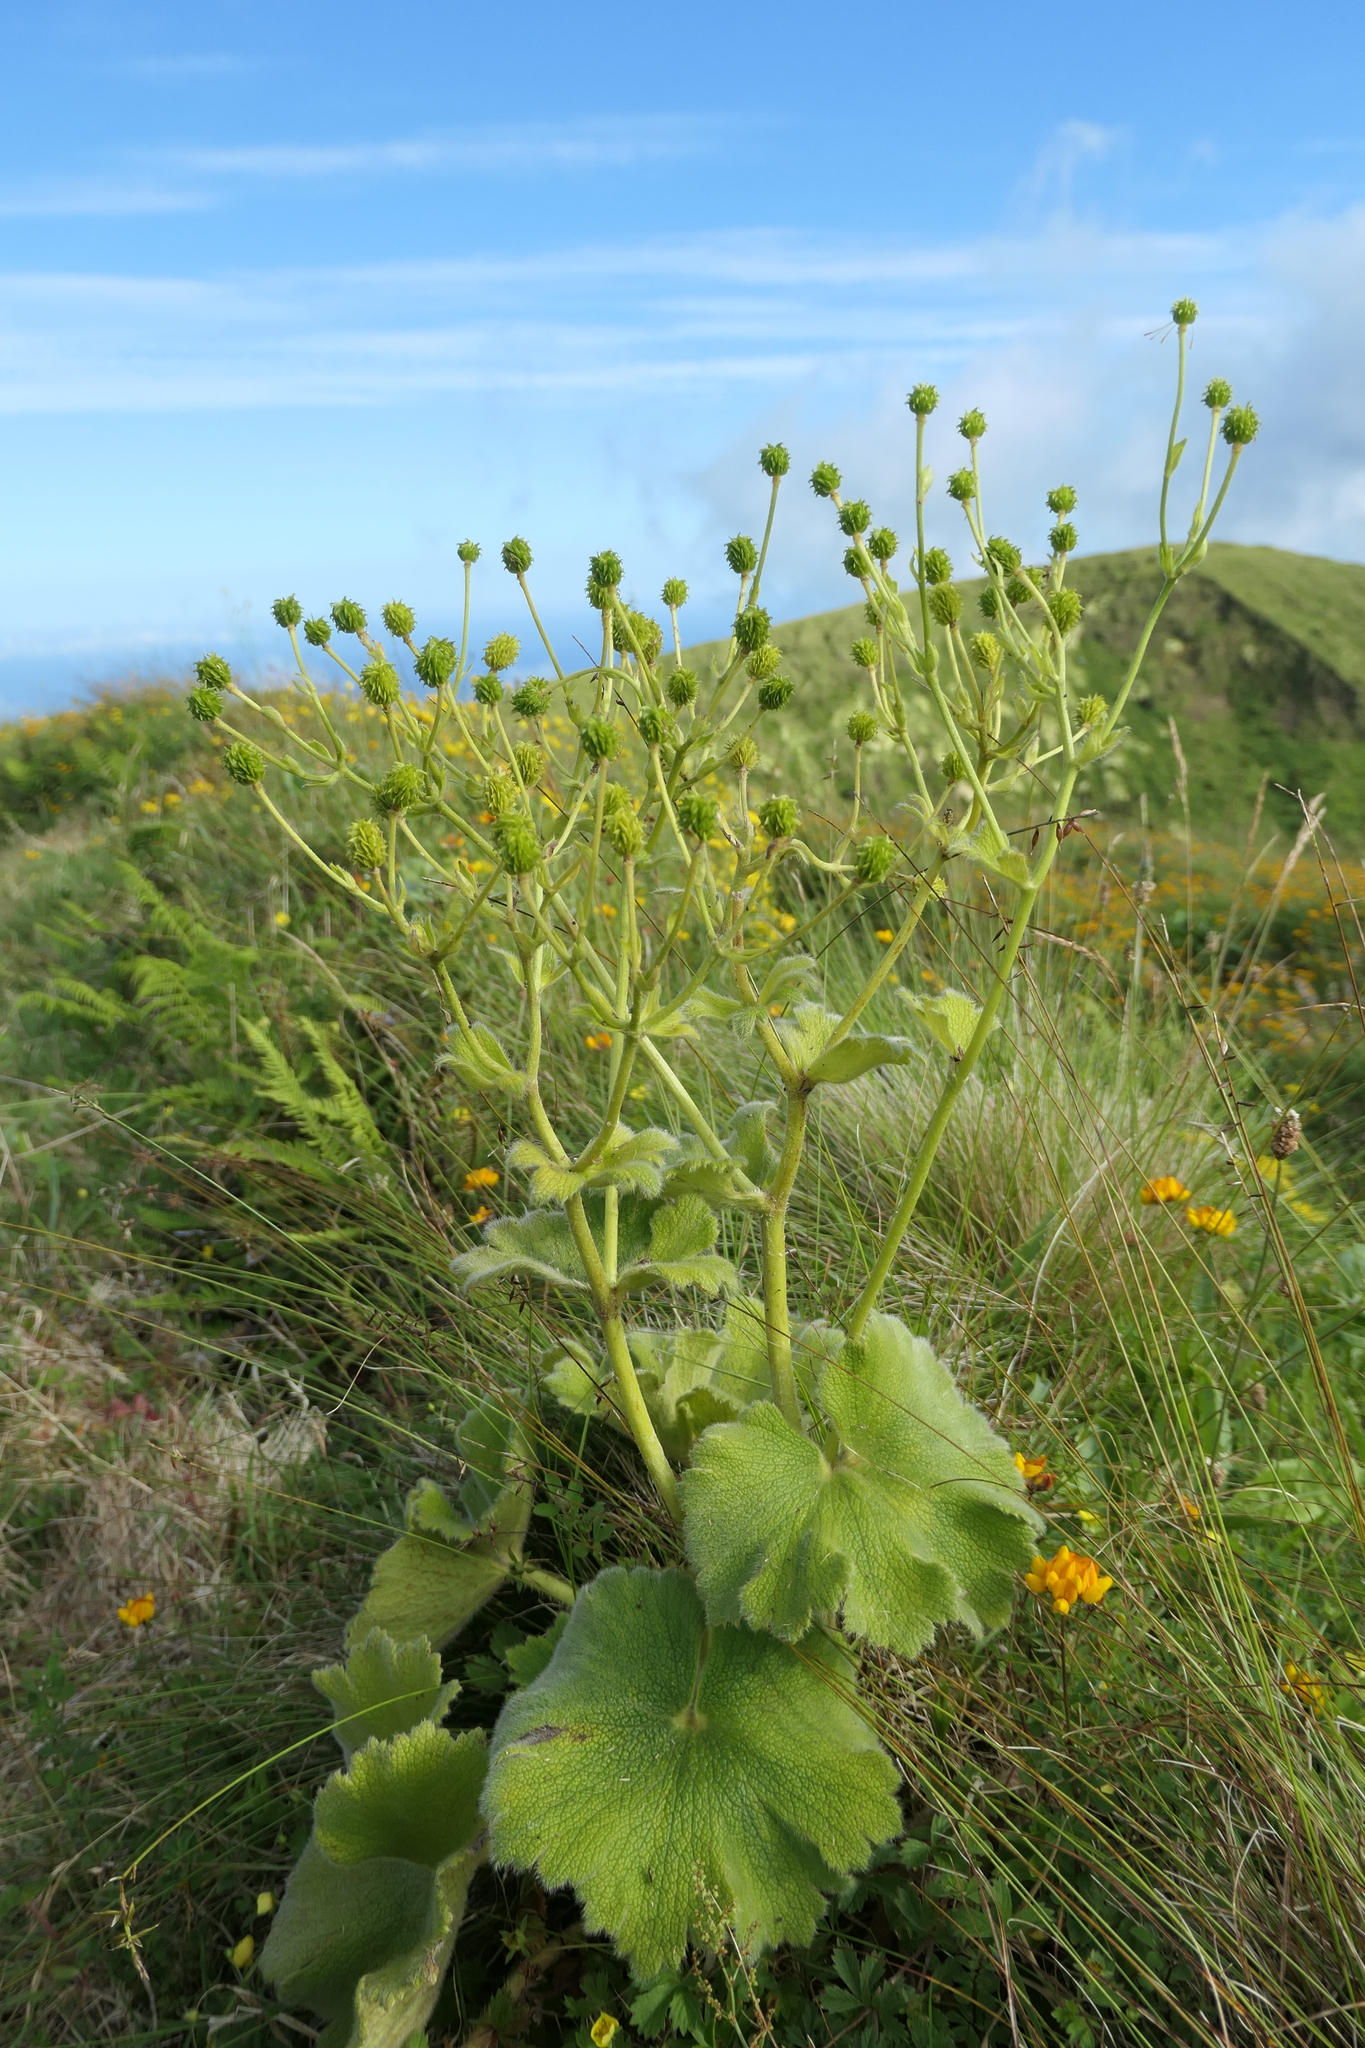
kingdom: Plantae
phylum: Tracheophyta
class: Magnoliopsida
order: Ranunculales
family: Ranunculaceae
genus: Ranunculus
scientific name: Ranunculus cortusifolius
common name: Azores buttercup
